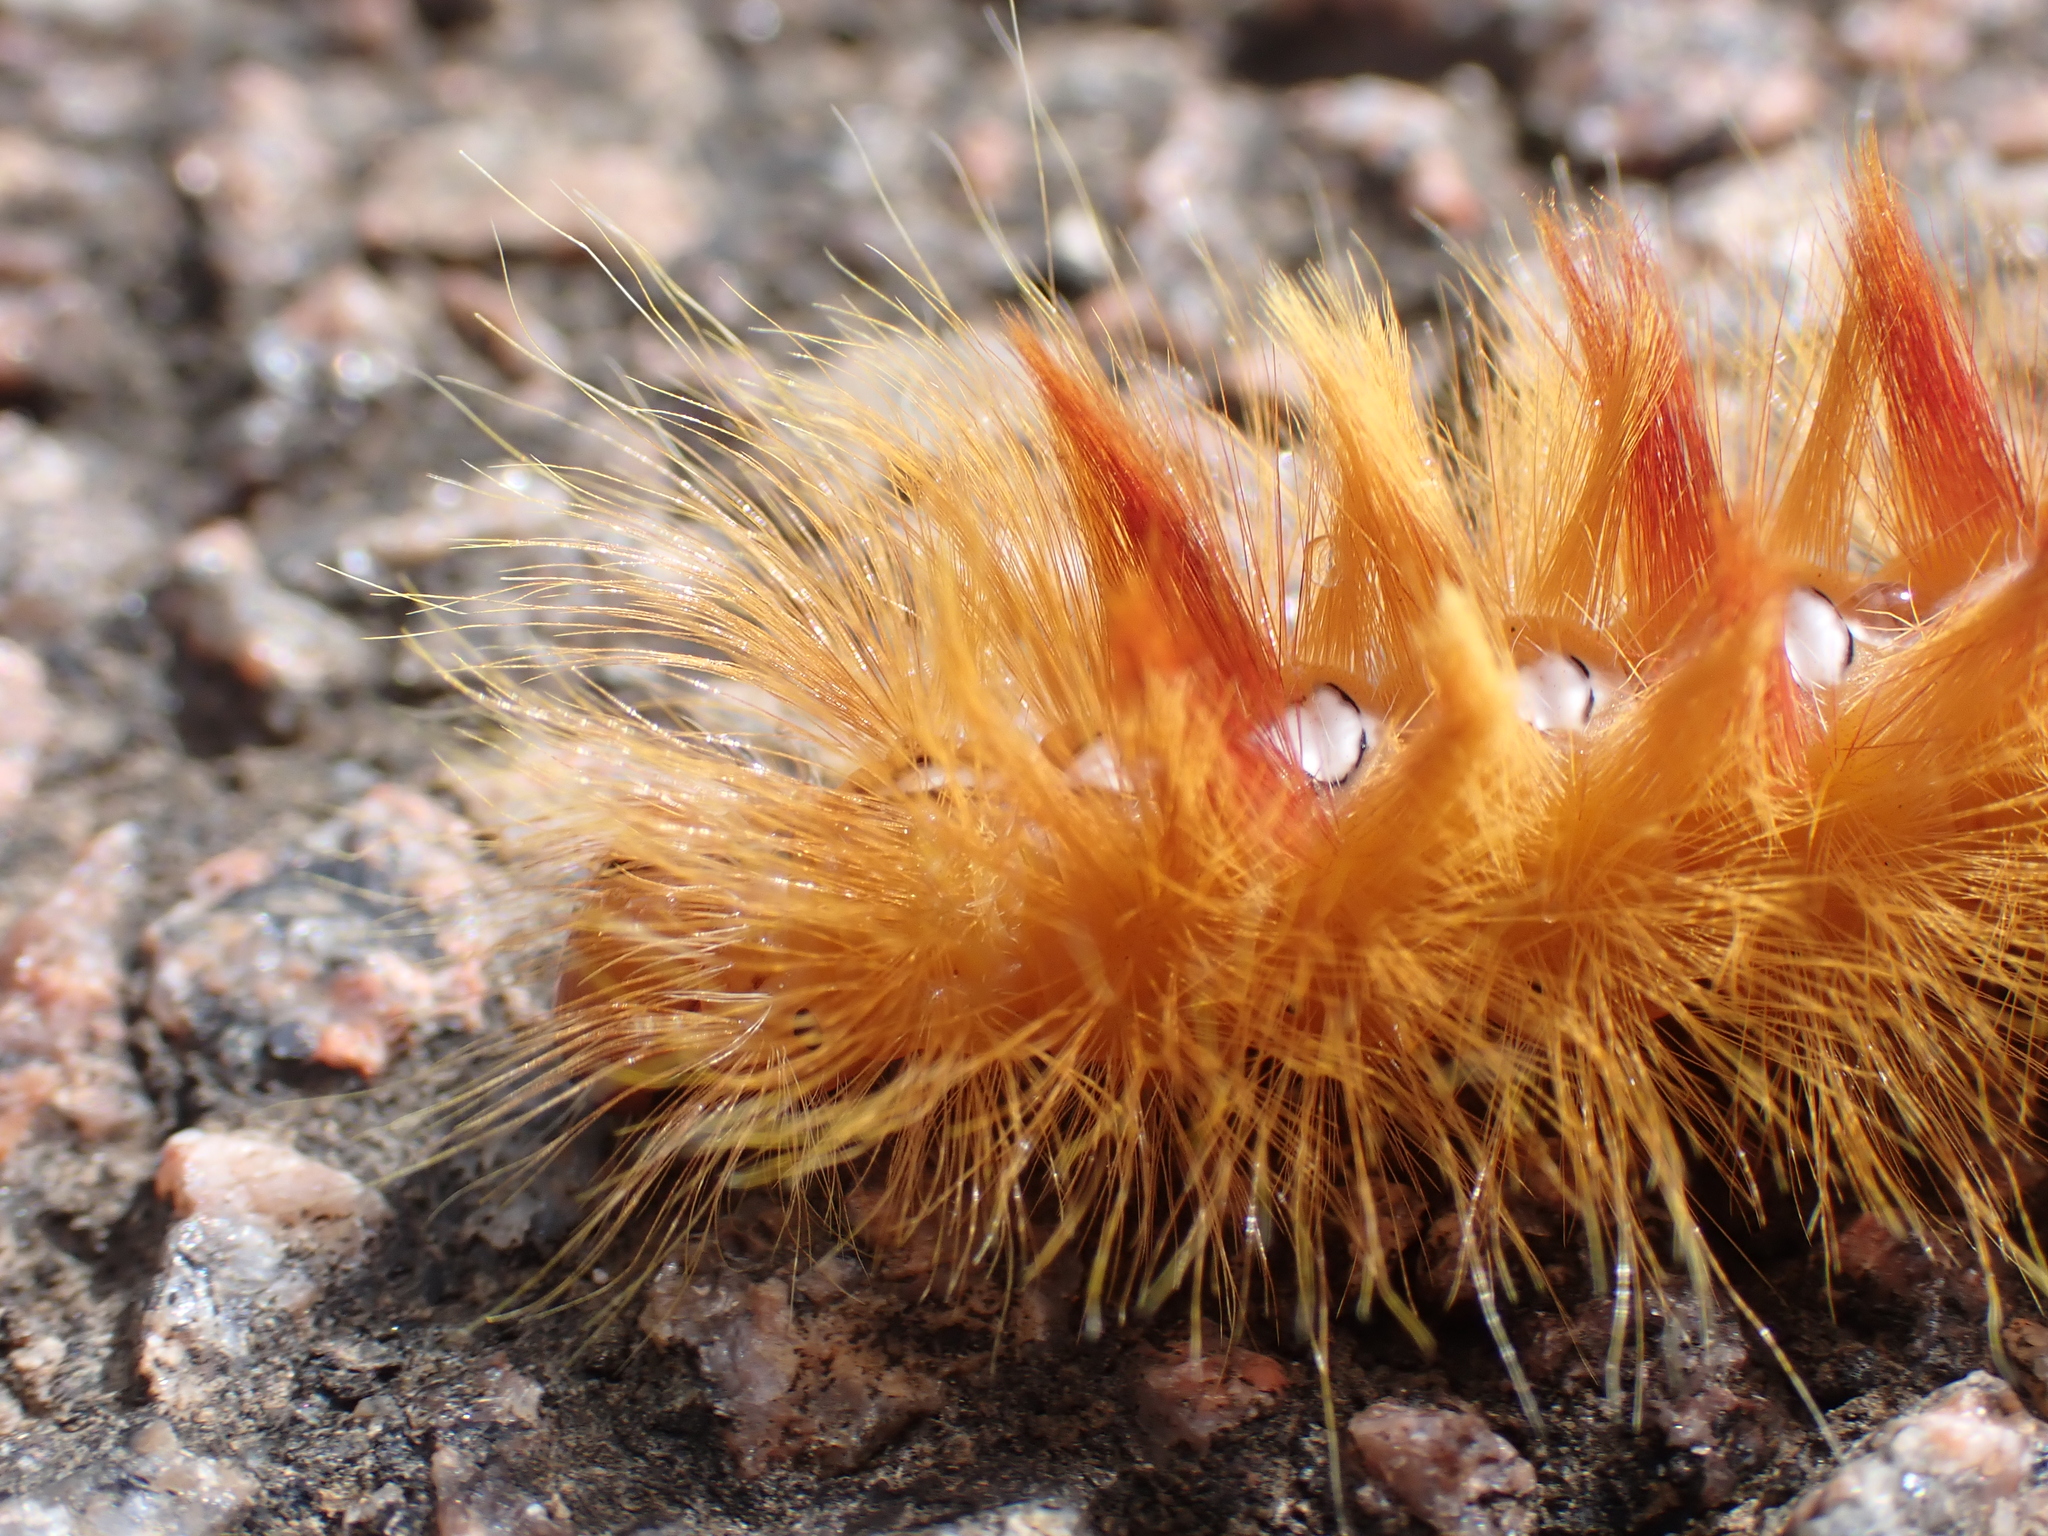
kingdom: Animalia
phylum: Arthropoda
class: Insecta
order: Lepidoptera
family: Noctuidae
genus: Acronicta
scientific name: Acronicta aceris
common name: Sycamore
